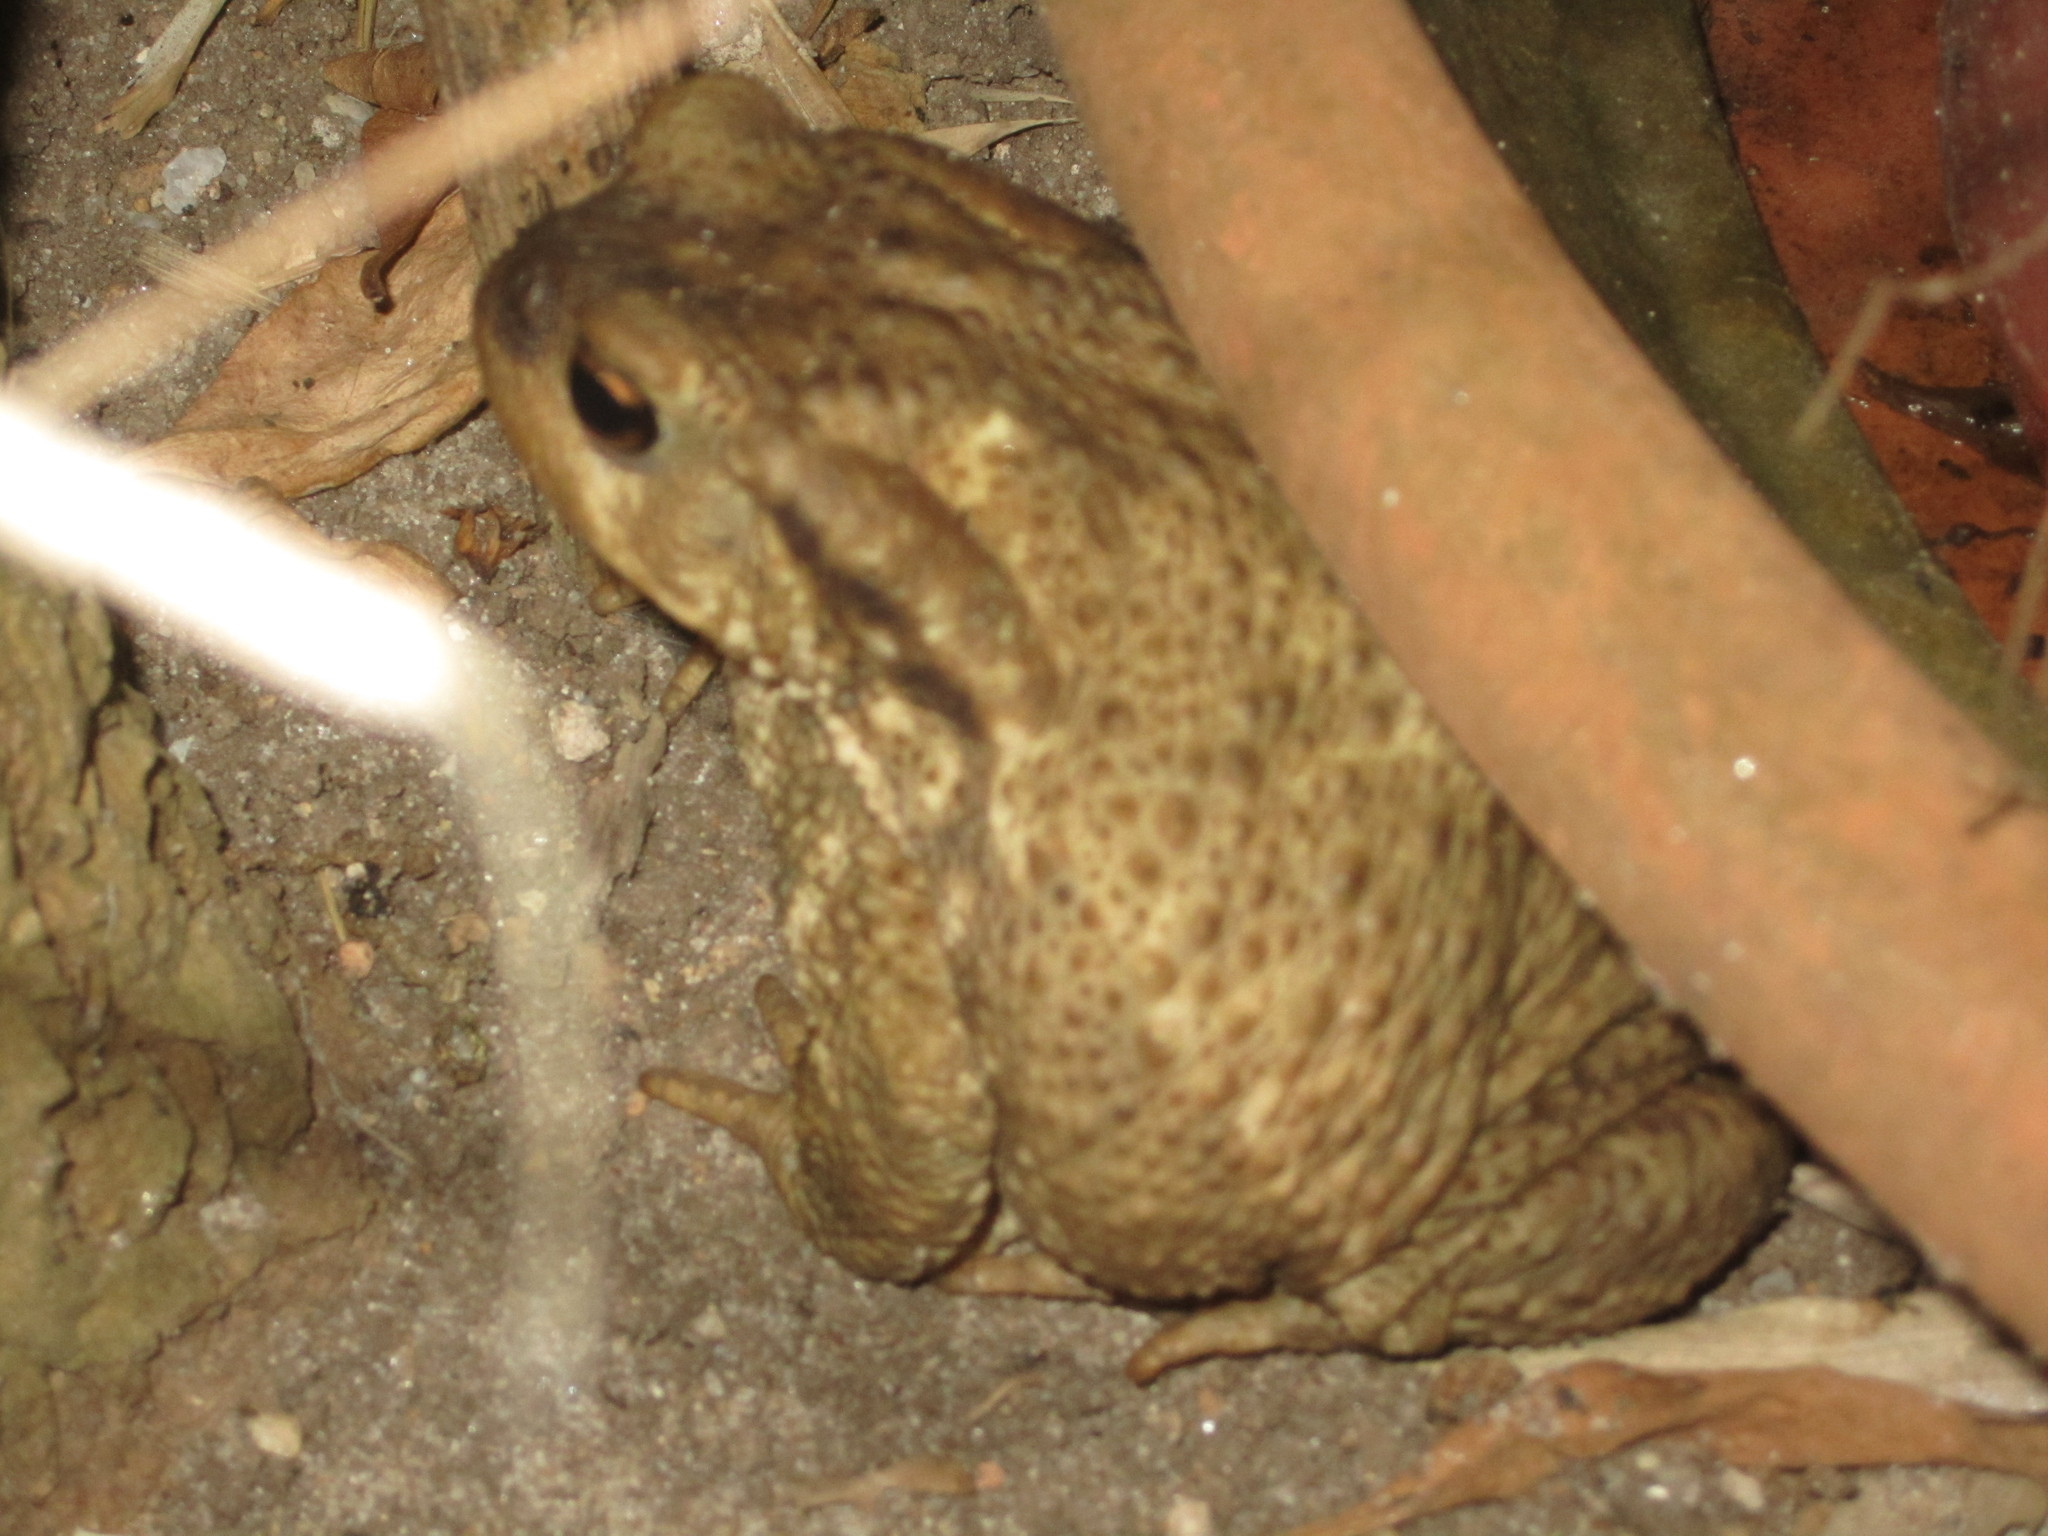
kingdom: Animalia
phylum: Chordata
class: Amphibia
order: Anura
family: Bufonidae
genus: Bufo
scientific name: Bufo spinosus
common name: Western common toad
